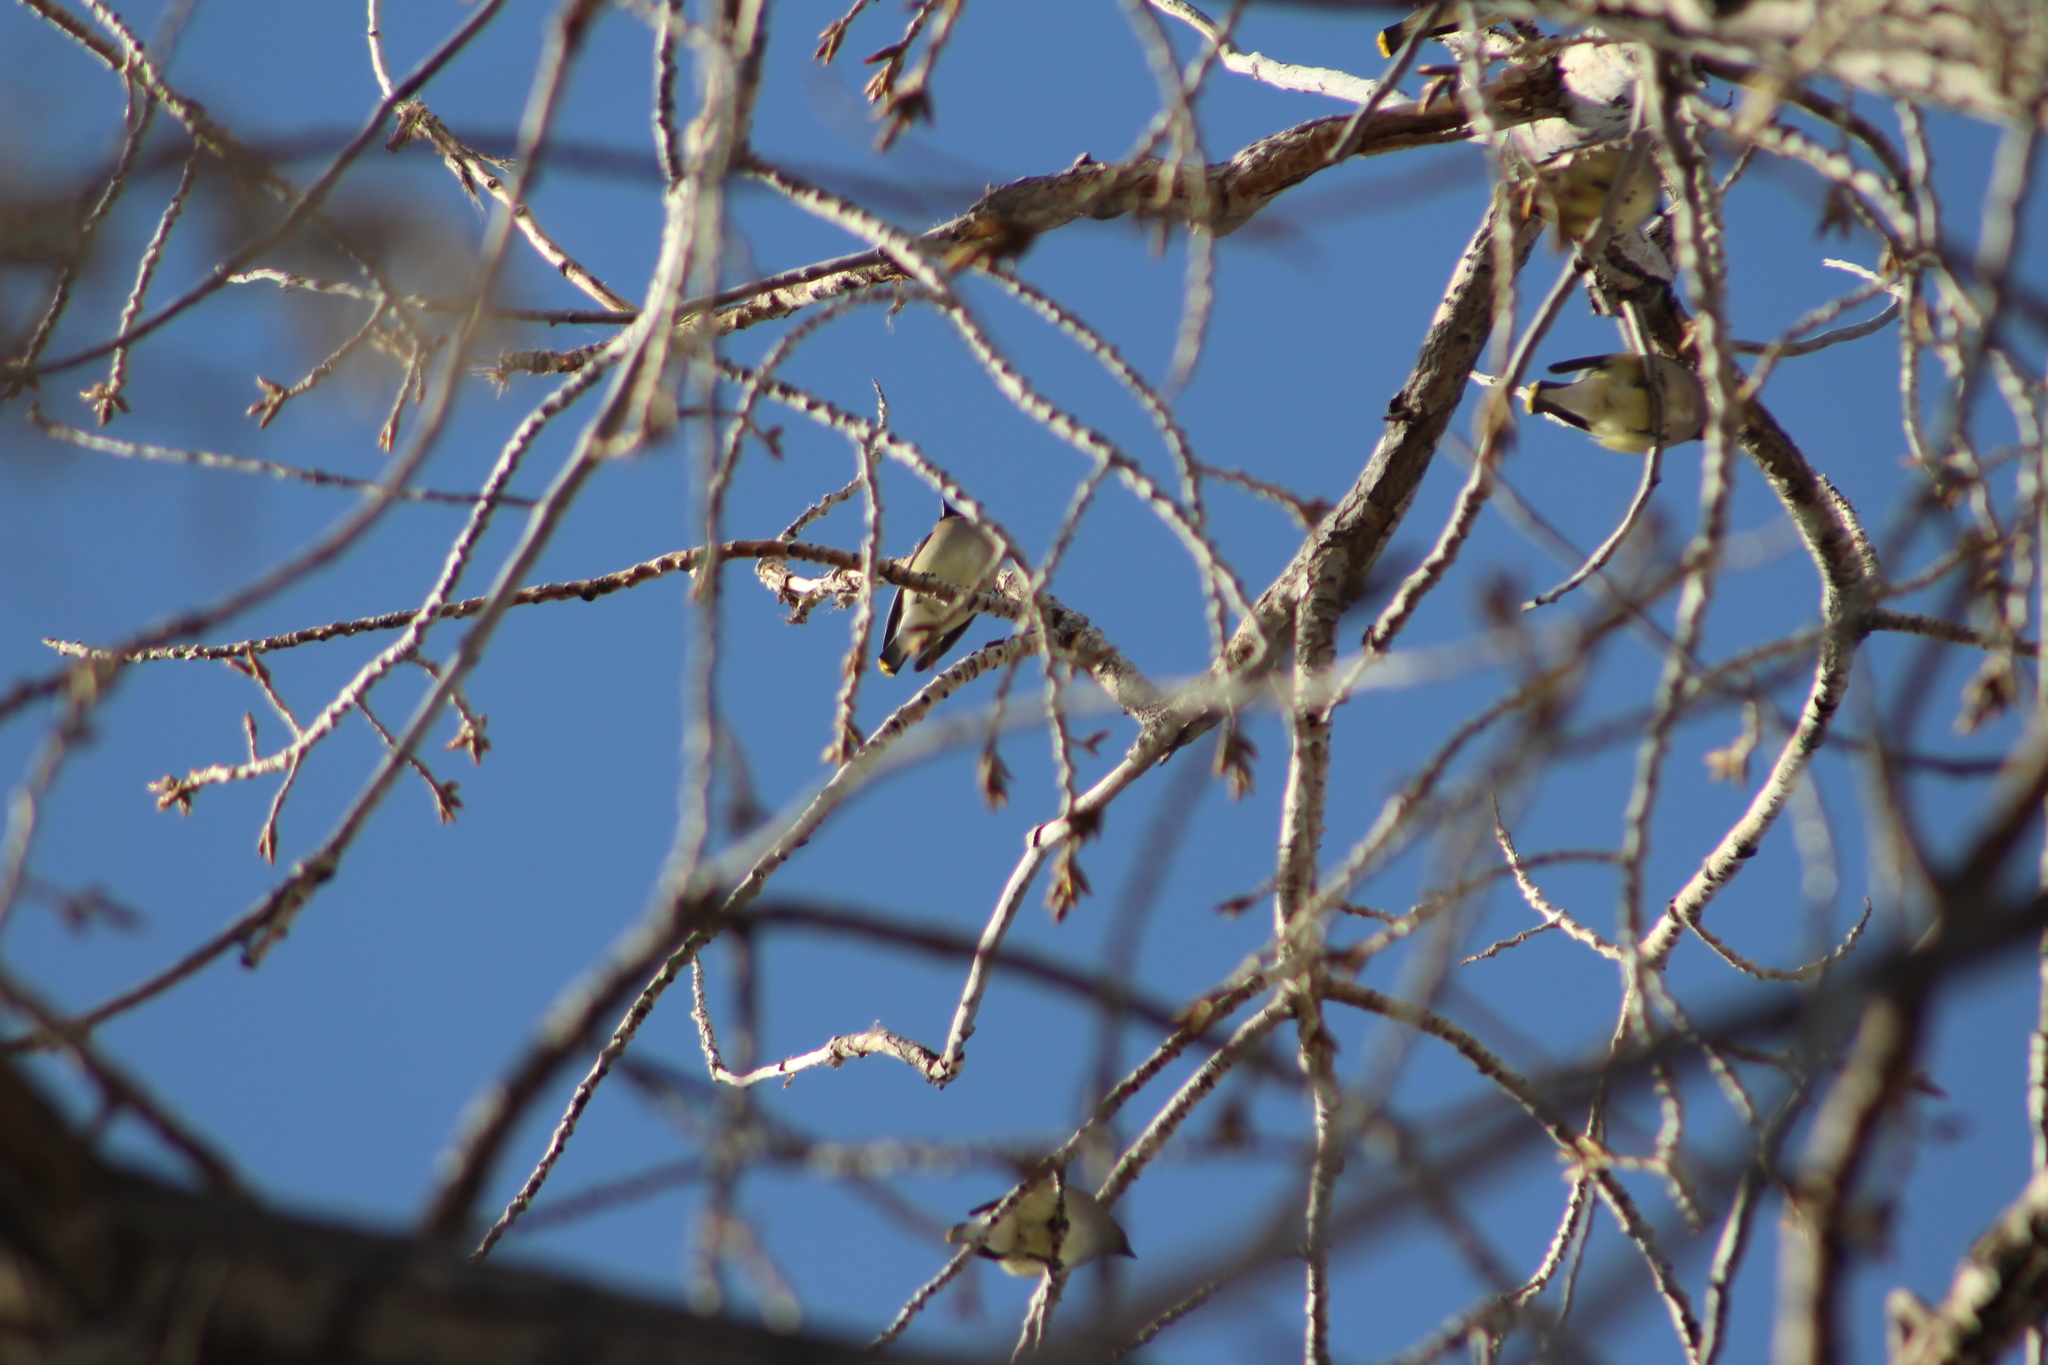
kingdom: Animalia
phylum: Chordata
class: Aves
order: Passeriformes
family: Bombycillidae
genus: Bombycilla
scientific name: Bombycilla cedrorum
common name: Cedar waxwing
